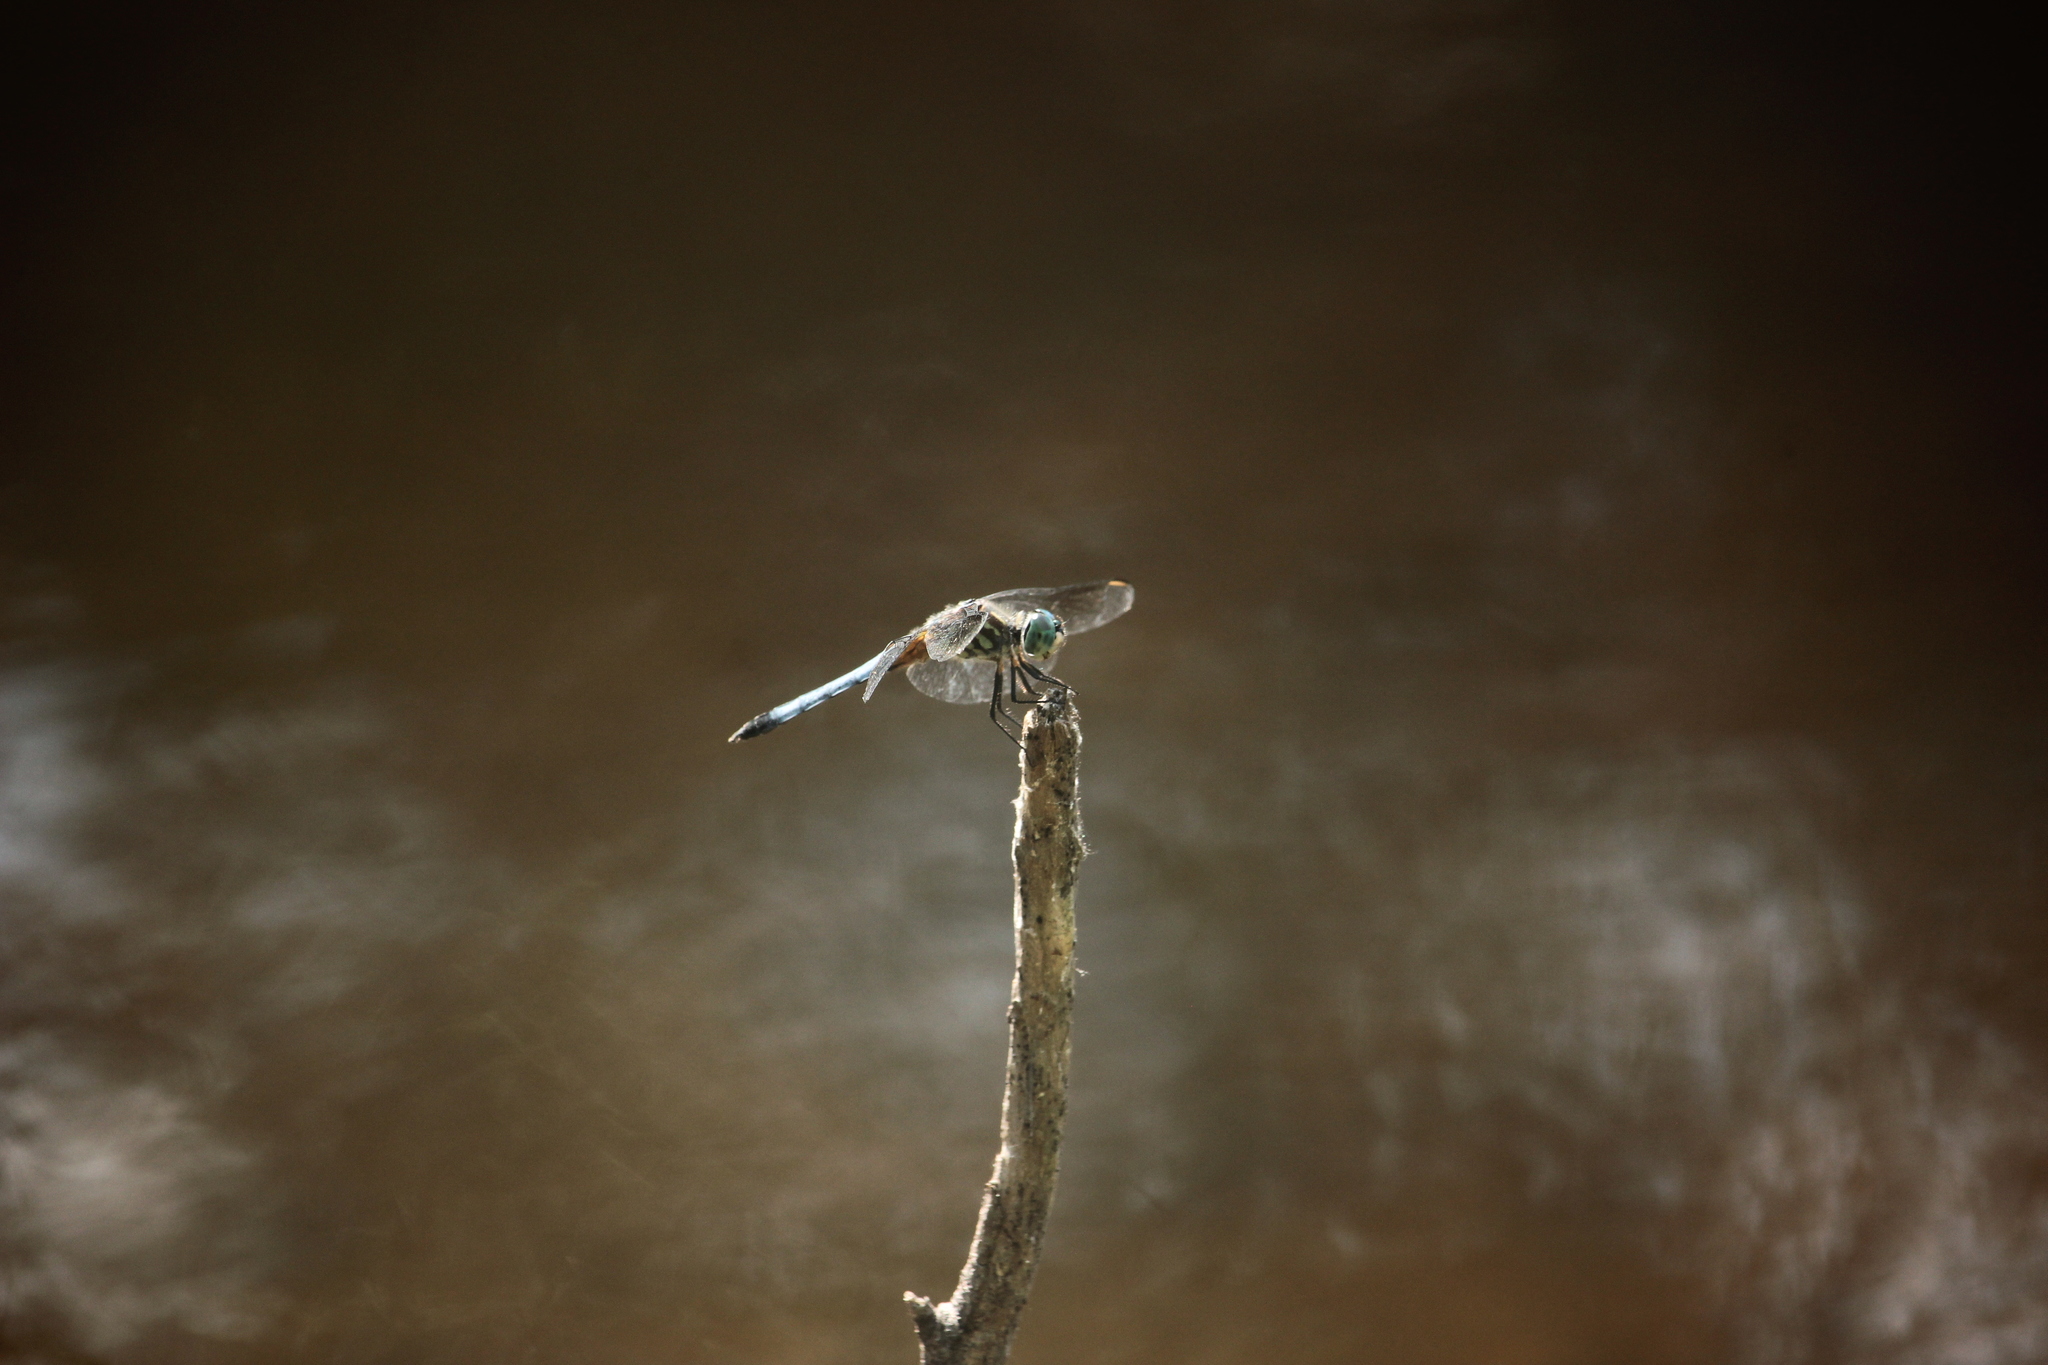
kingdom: Animalia
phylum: Arthropoda
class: Insecta
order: Odonata
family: Libellulidae
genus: Pachydiplax
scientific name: Pachydiplax longipennis
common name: Blue dasher
